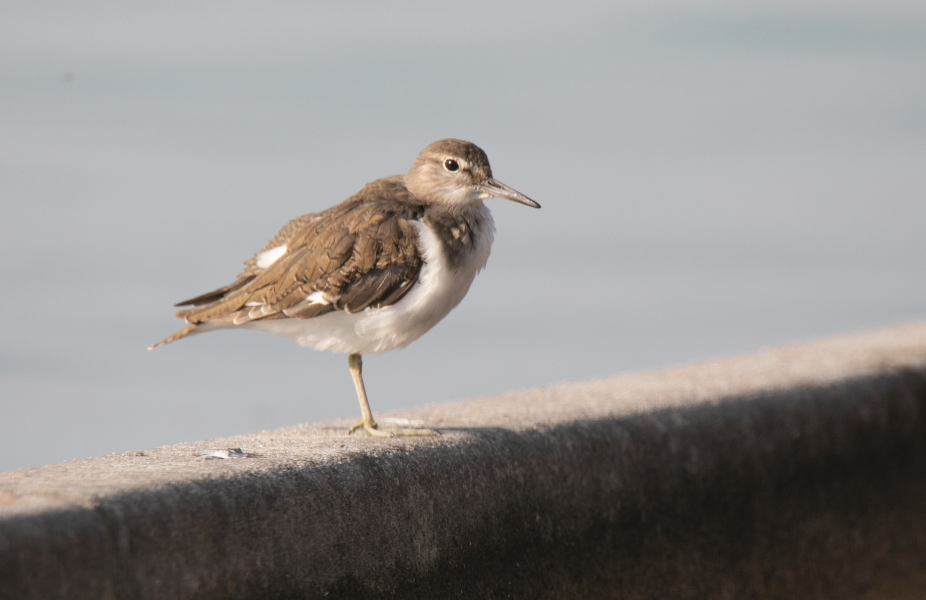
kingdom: Animalia
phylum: Chordata
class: Aves
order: Charadriiformes
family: Scolopacidae
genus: Actitis
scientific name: Actitis hypoleucos
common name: Common sandpiper
